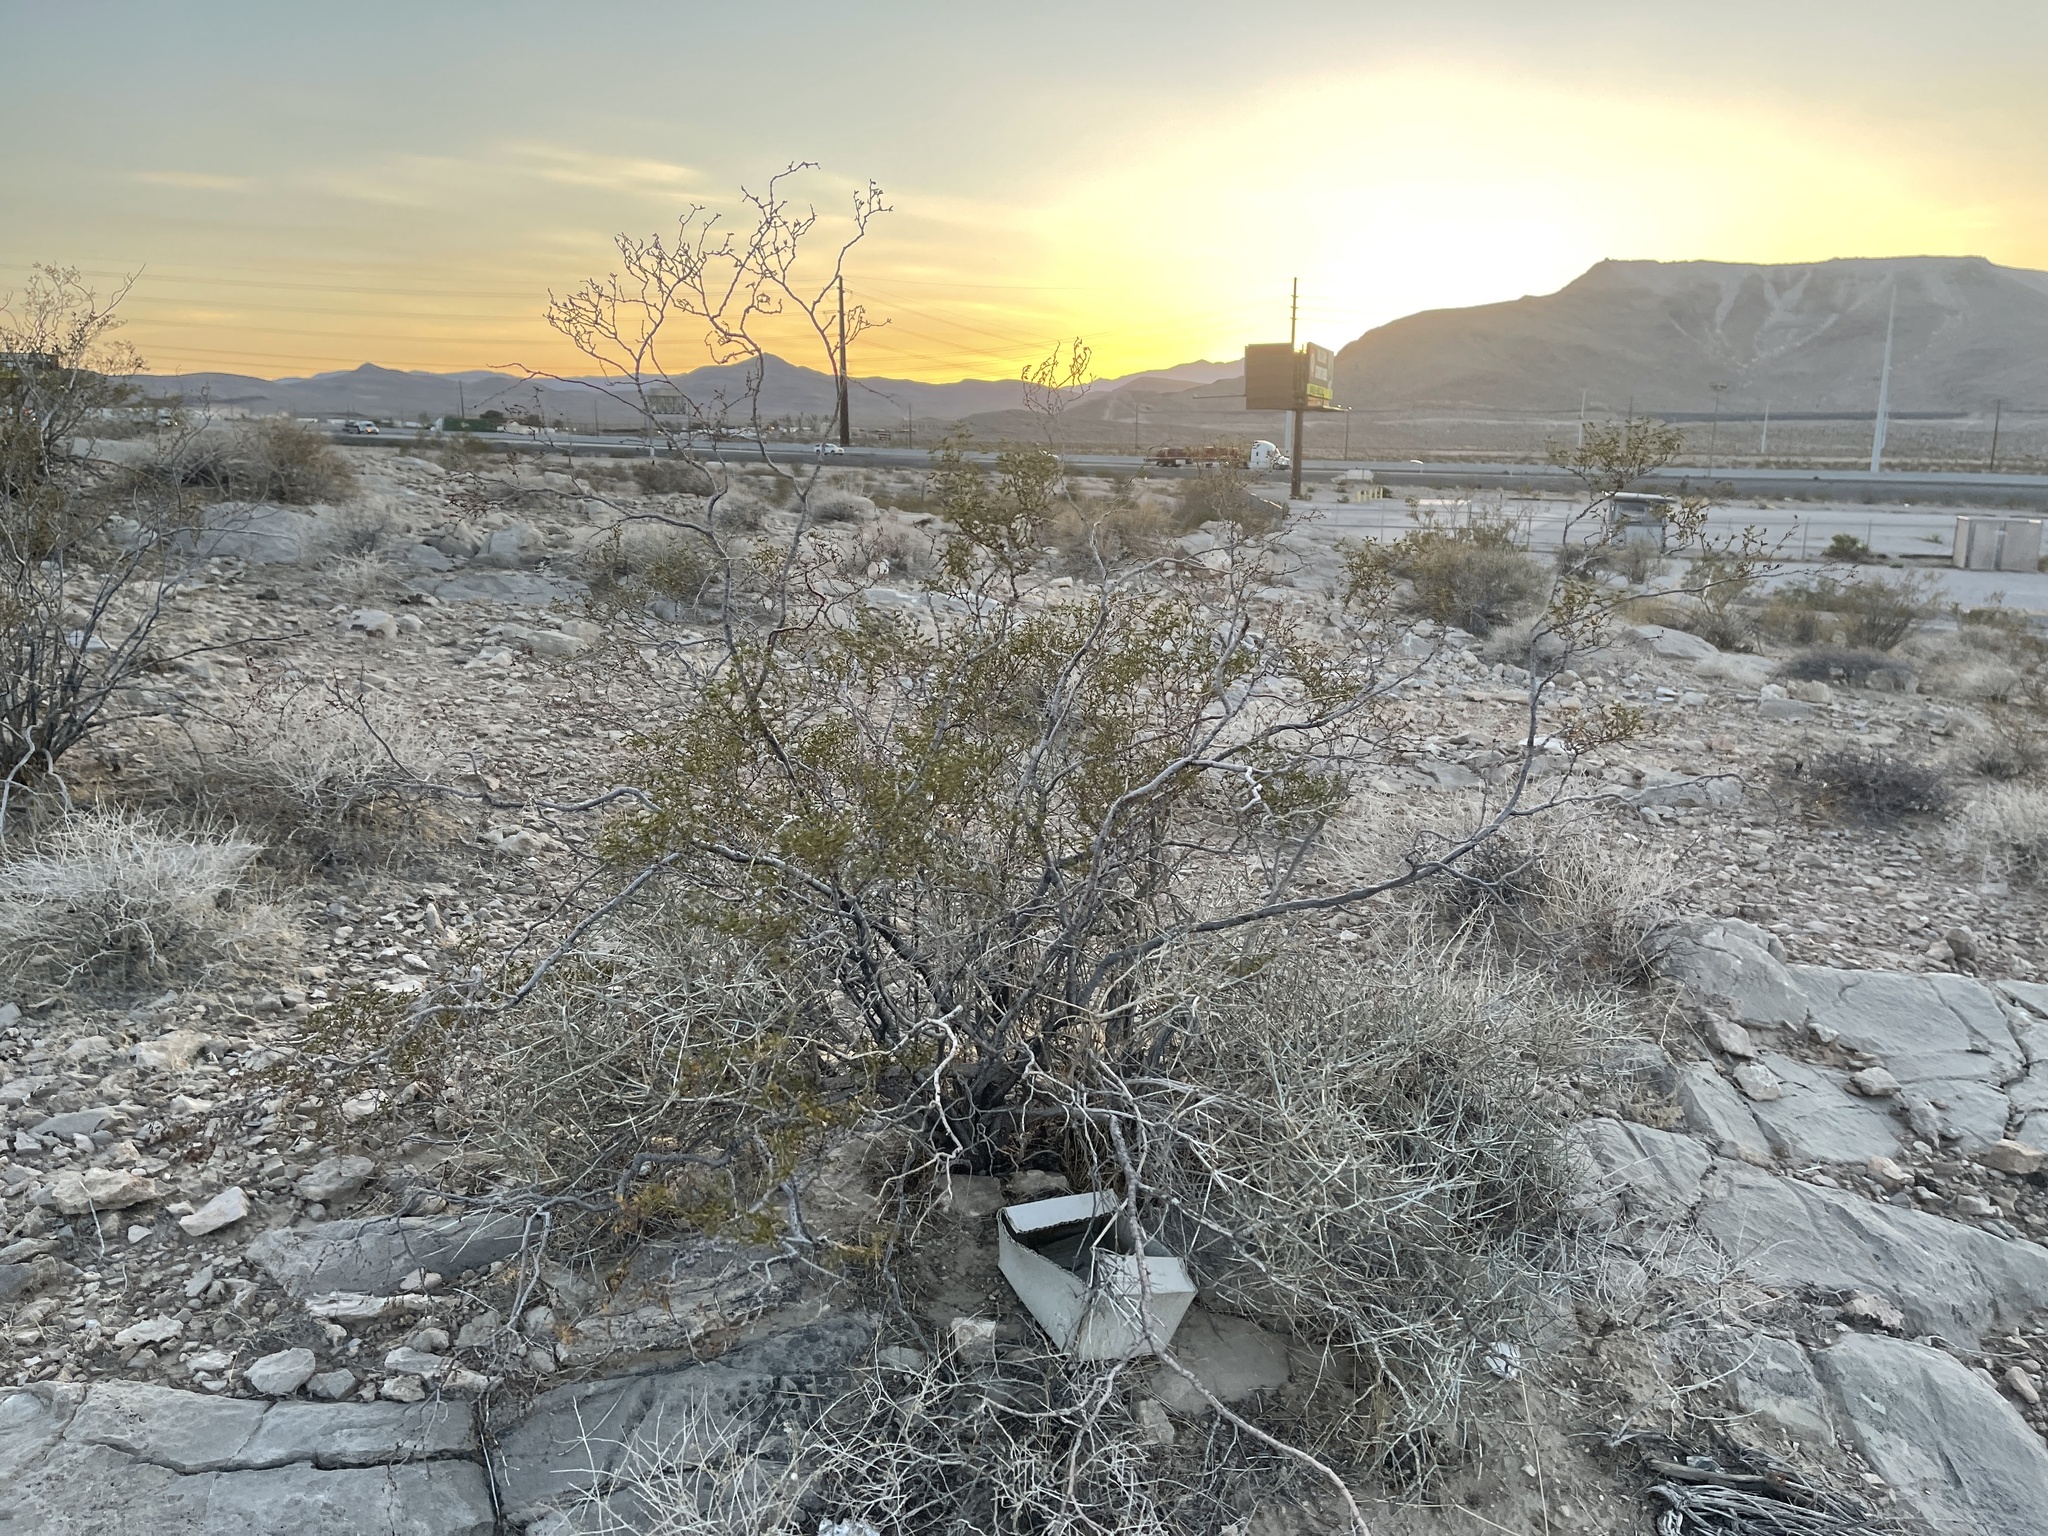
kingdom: Plantae
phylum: Tracheophyta
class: Magnoliopsida
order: Zygophyllales
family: Zygophyllaceae
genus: Larrea
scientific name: Larrea tridentata
